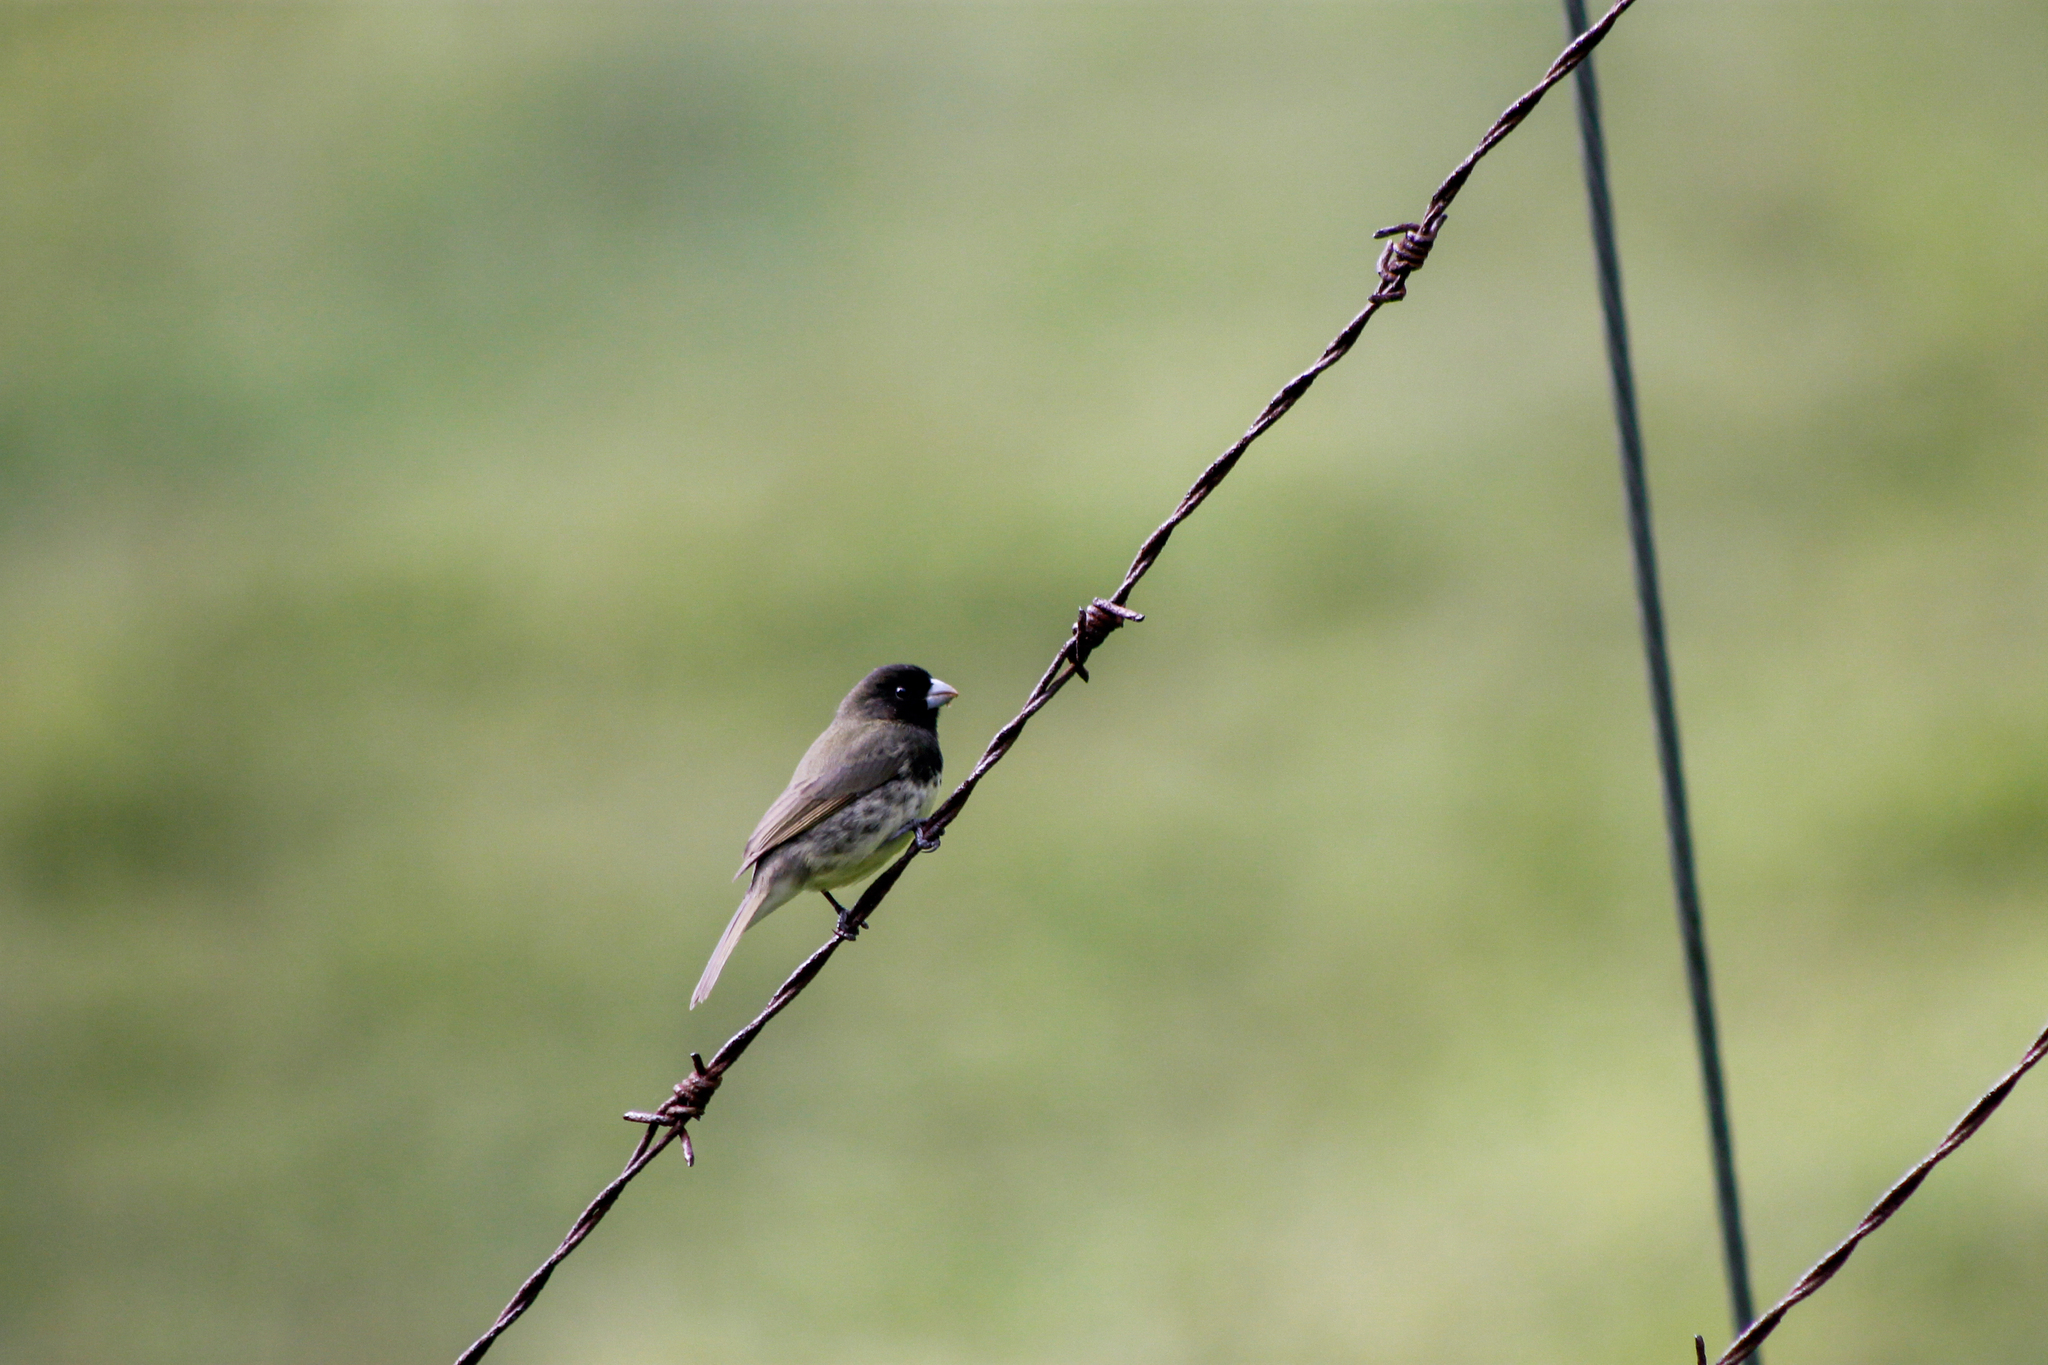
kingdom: Animalia
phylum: Chordata
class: Aves
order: Passeriformes
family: Thraupidae
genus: Sporophila
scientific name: Sporophila nigricollis
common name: Yellow-bellied seedeater
